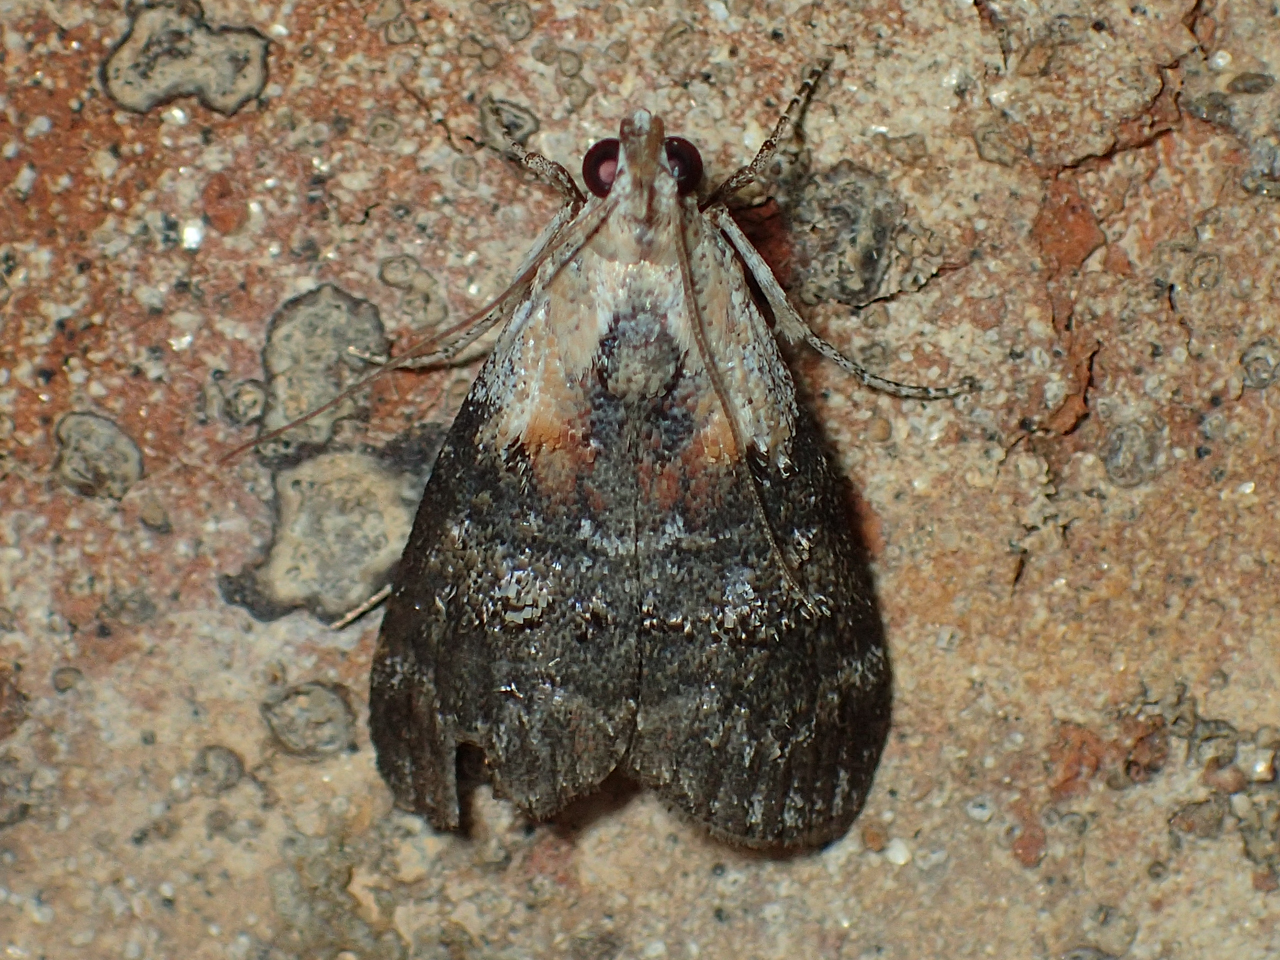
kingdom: Animalia
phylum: Arthropoda
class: Insecta
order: Lepidoptera
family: Pyralidae
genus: Pococera
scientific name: Pococera expandens
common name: Striped oak webworm moth
